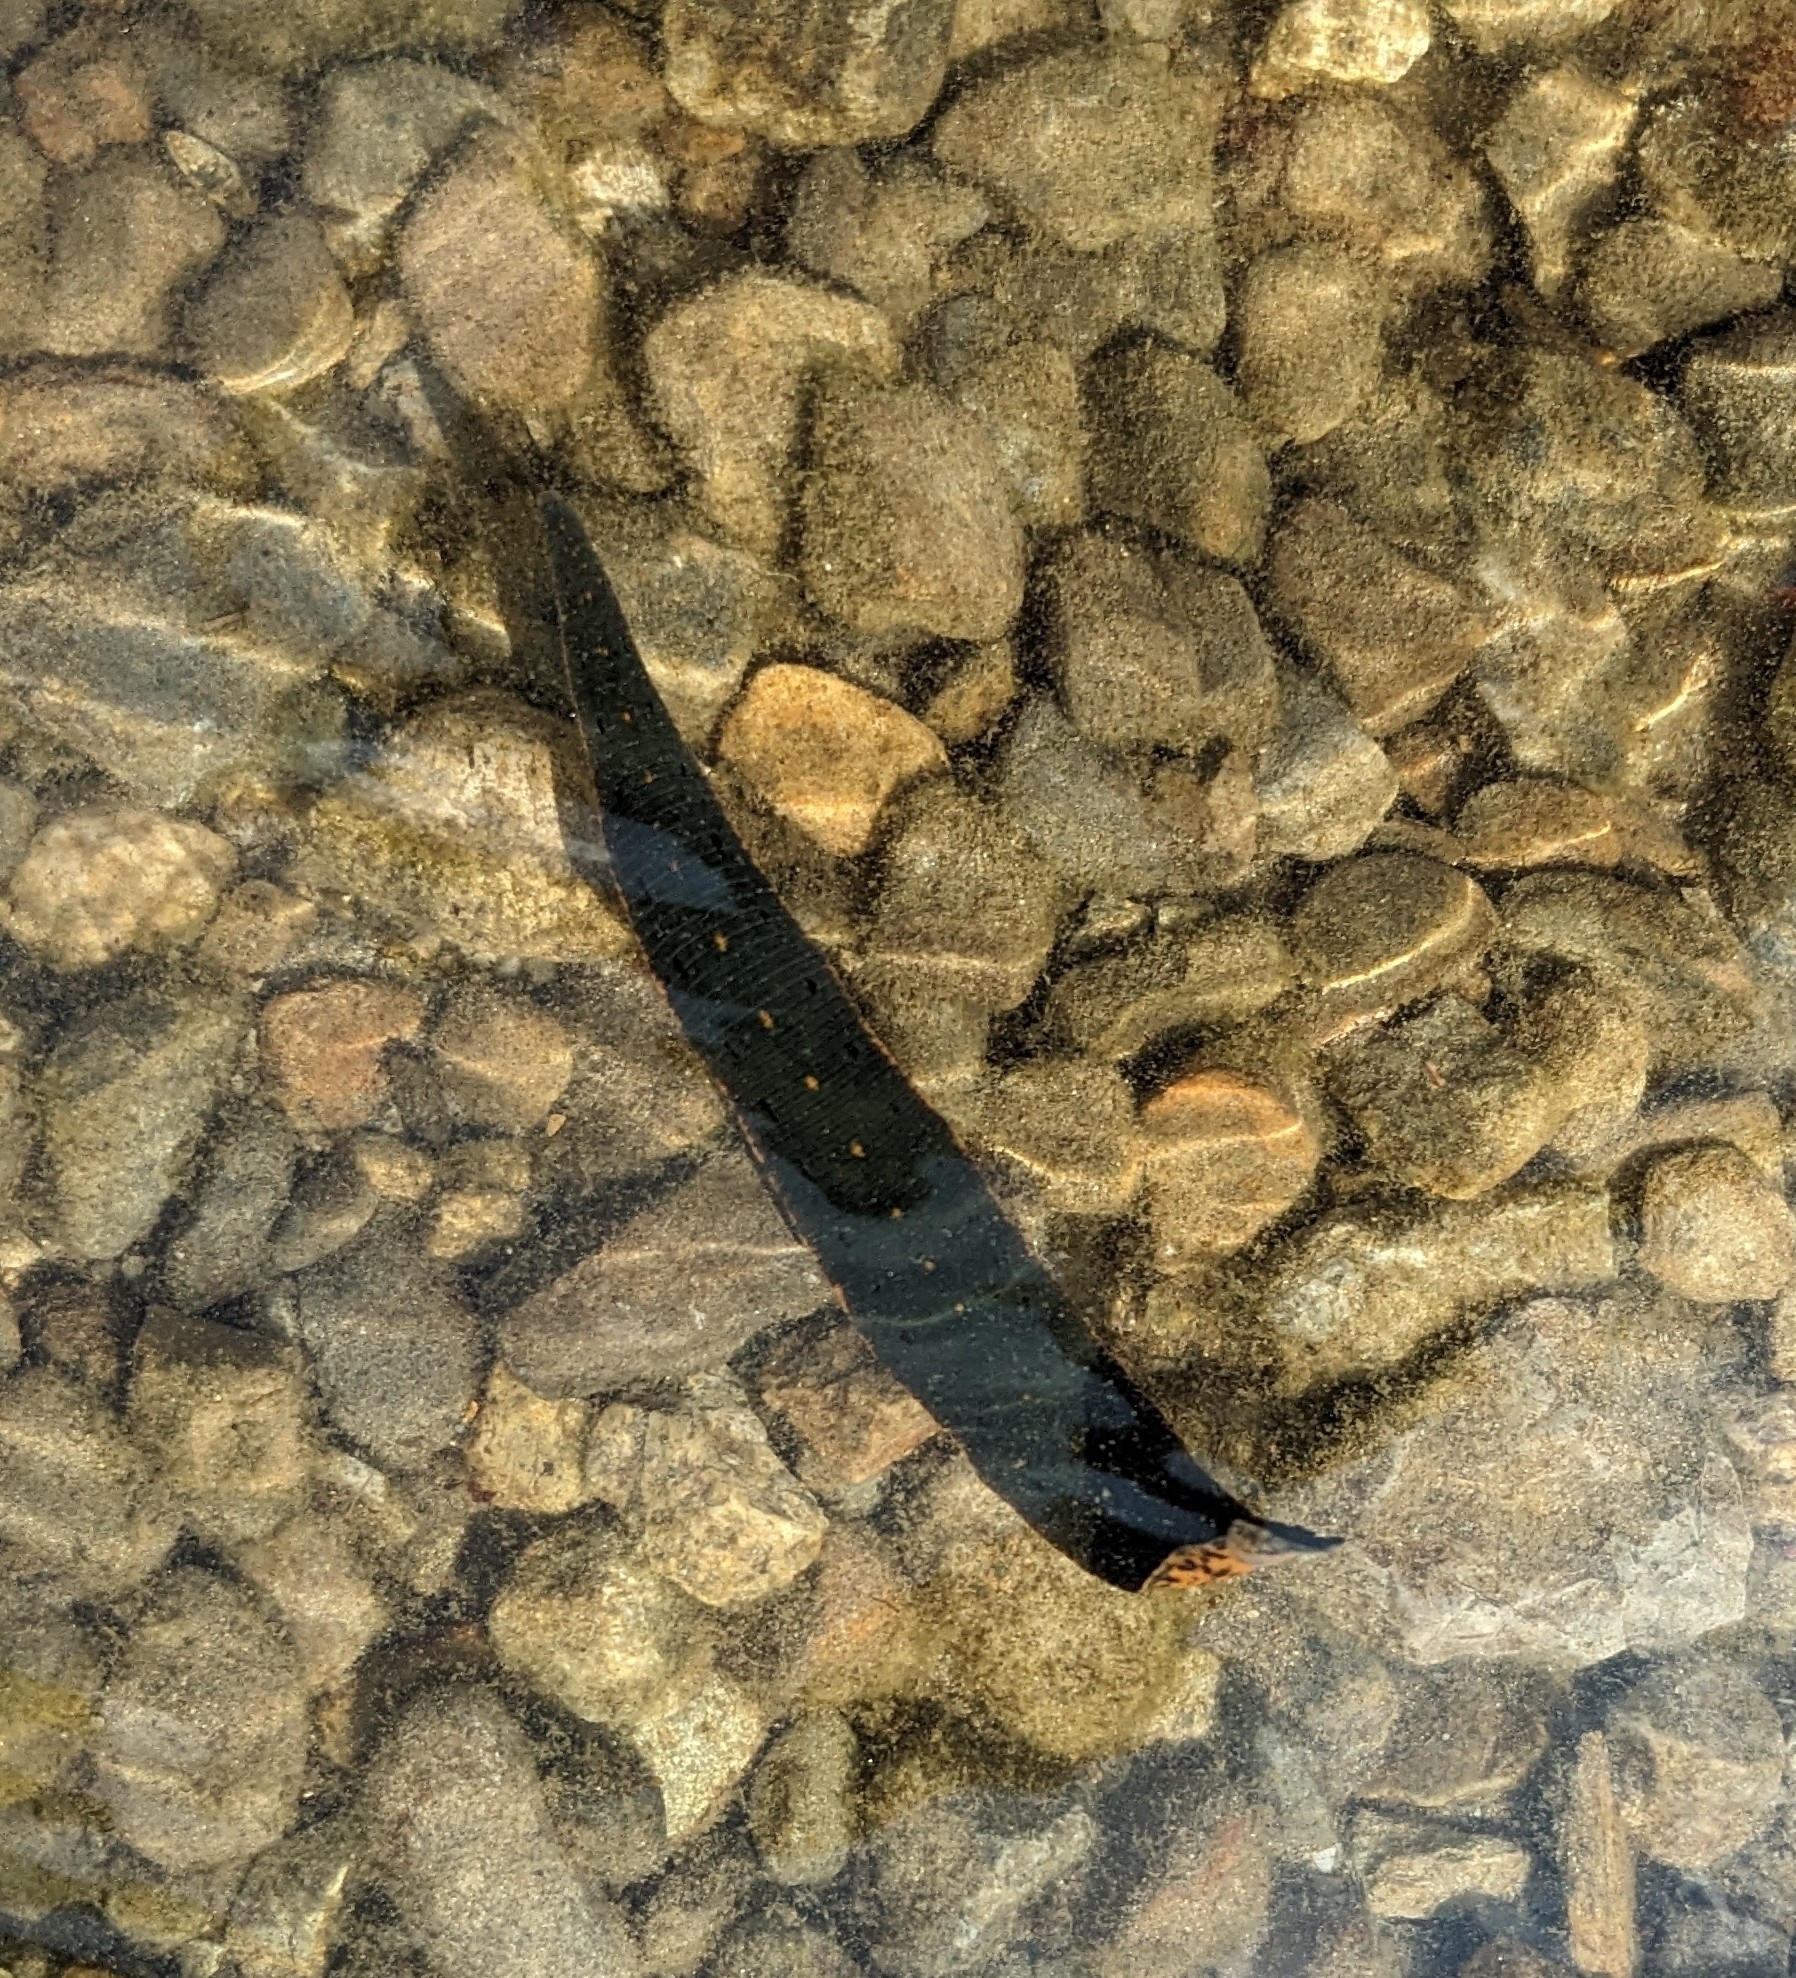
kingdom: Animalia
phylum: Annelida
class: Clitellata
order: Arhynchobdellida
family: Hirudinidae
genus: Macrobdella
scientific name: Macrobdella decora
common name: North american leech
